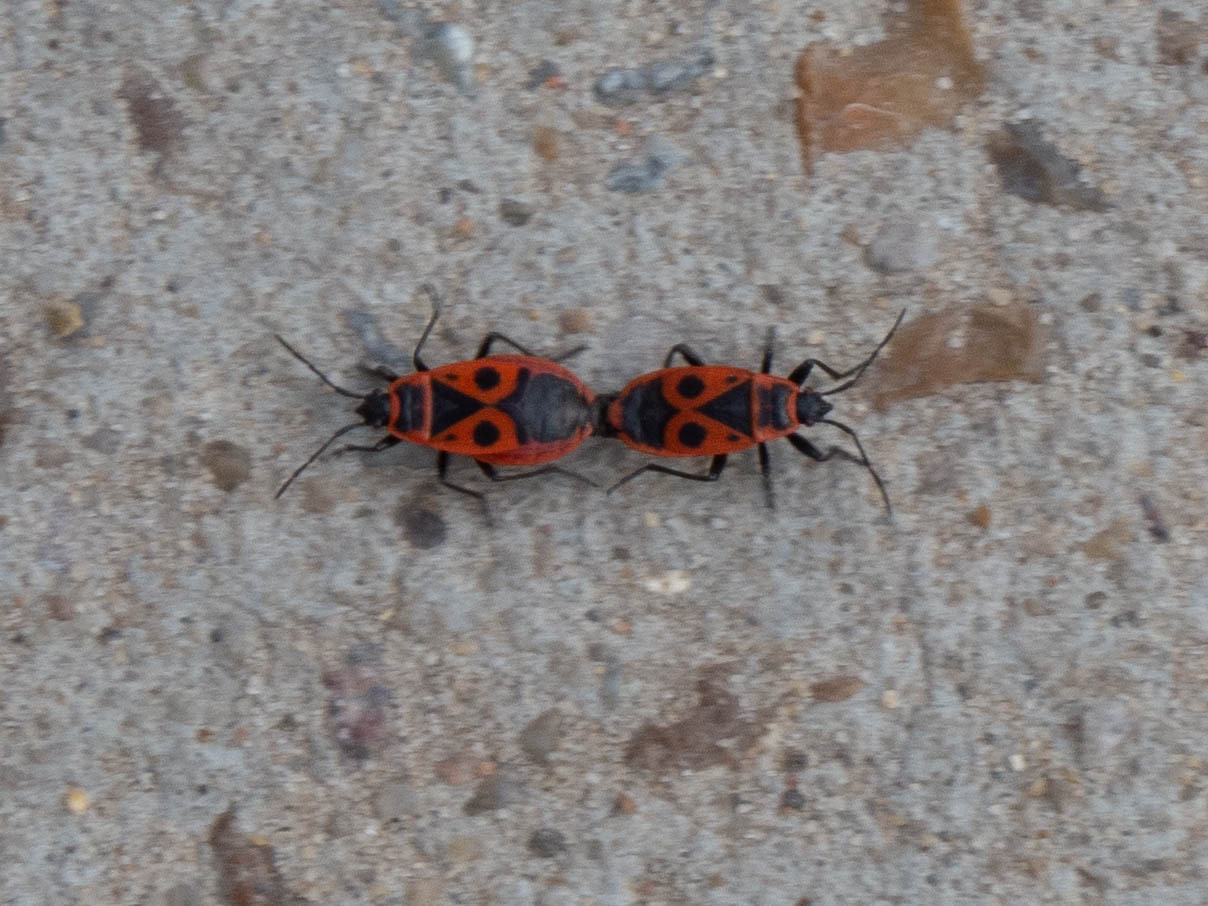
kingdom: Animalia
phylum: Arthropoda
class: Insecta
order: Hemiptera
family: Pyrrhocoridae
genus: Pyrrhocoris
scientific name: Pyrrhocoris apterus
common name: Firebug
